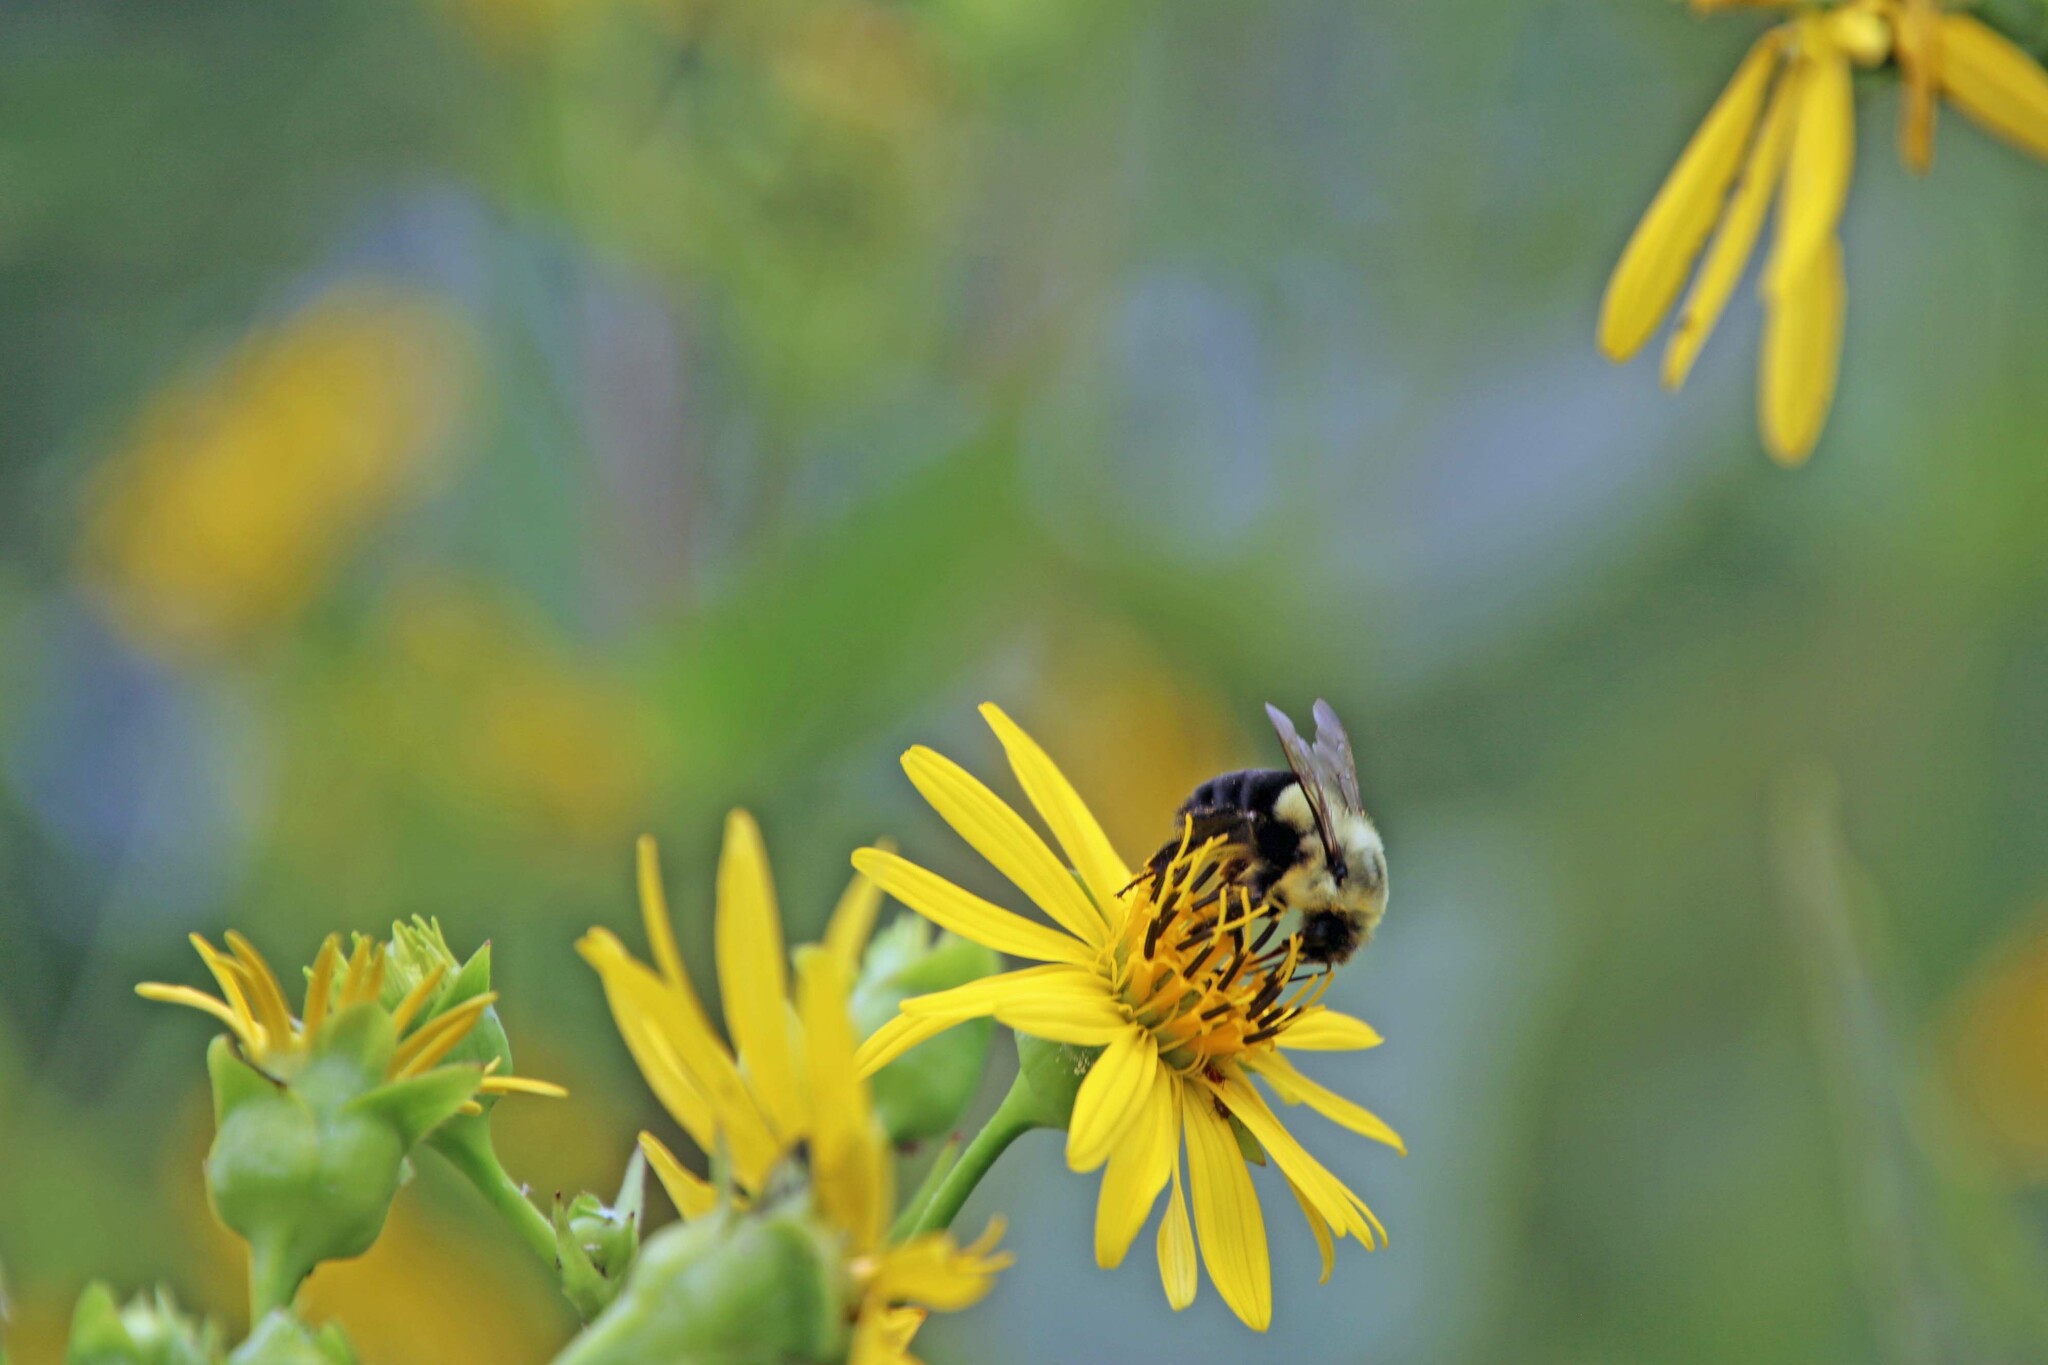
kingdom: Animalia
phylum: Arthropoda
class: Insecta
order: Hymenoptera
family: Apidae
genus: Bombus
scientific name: Bombus impatiens
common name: Common eastern bumble bee
